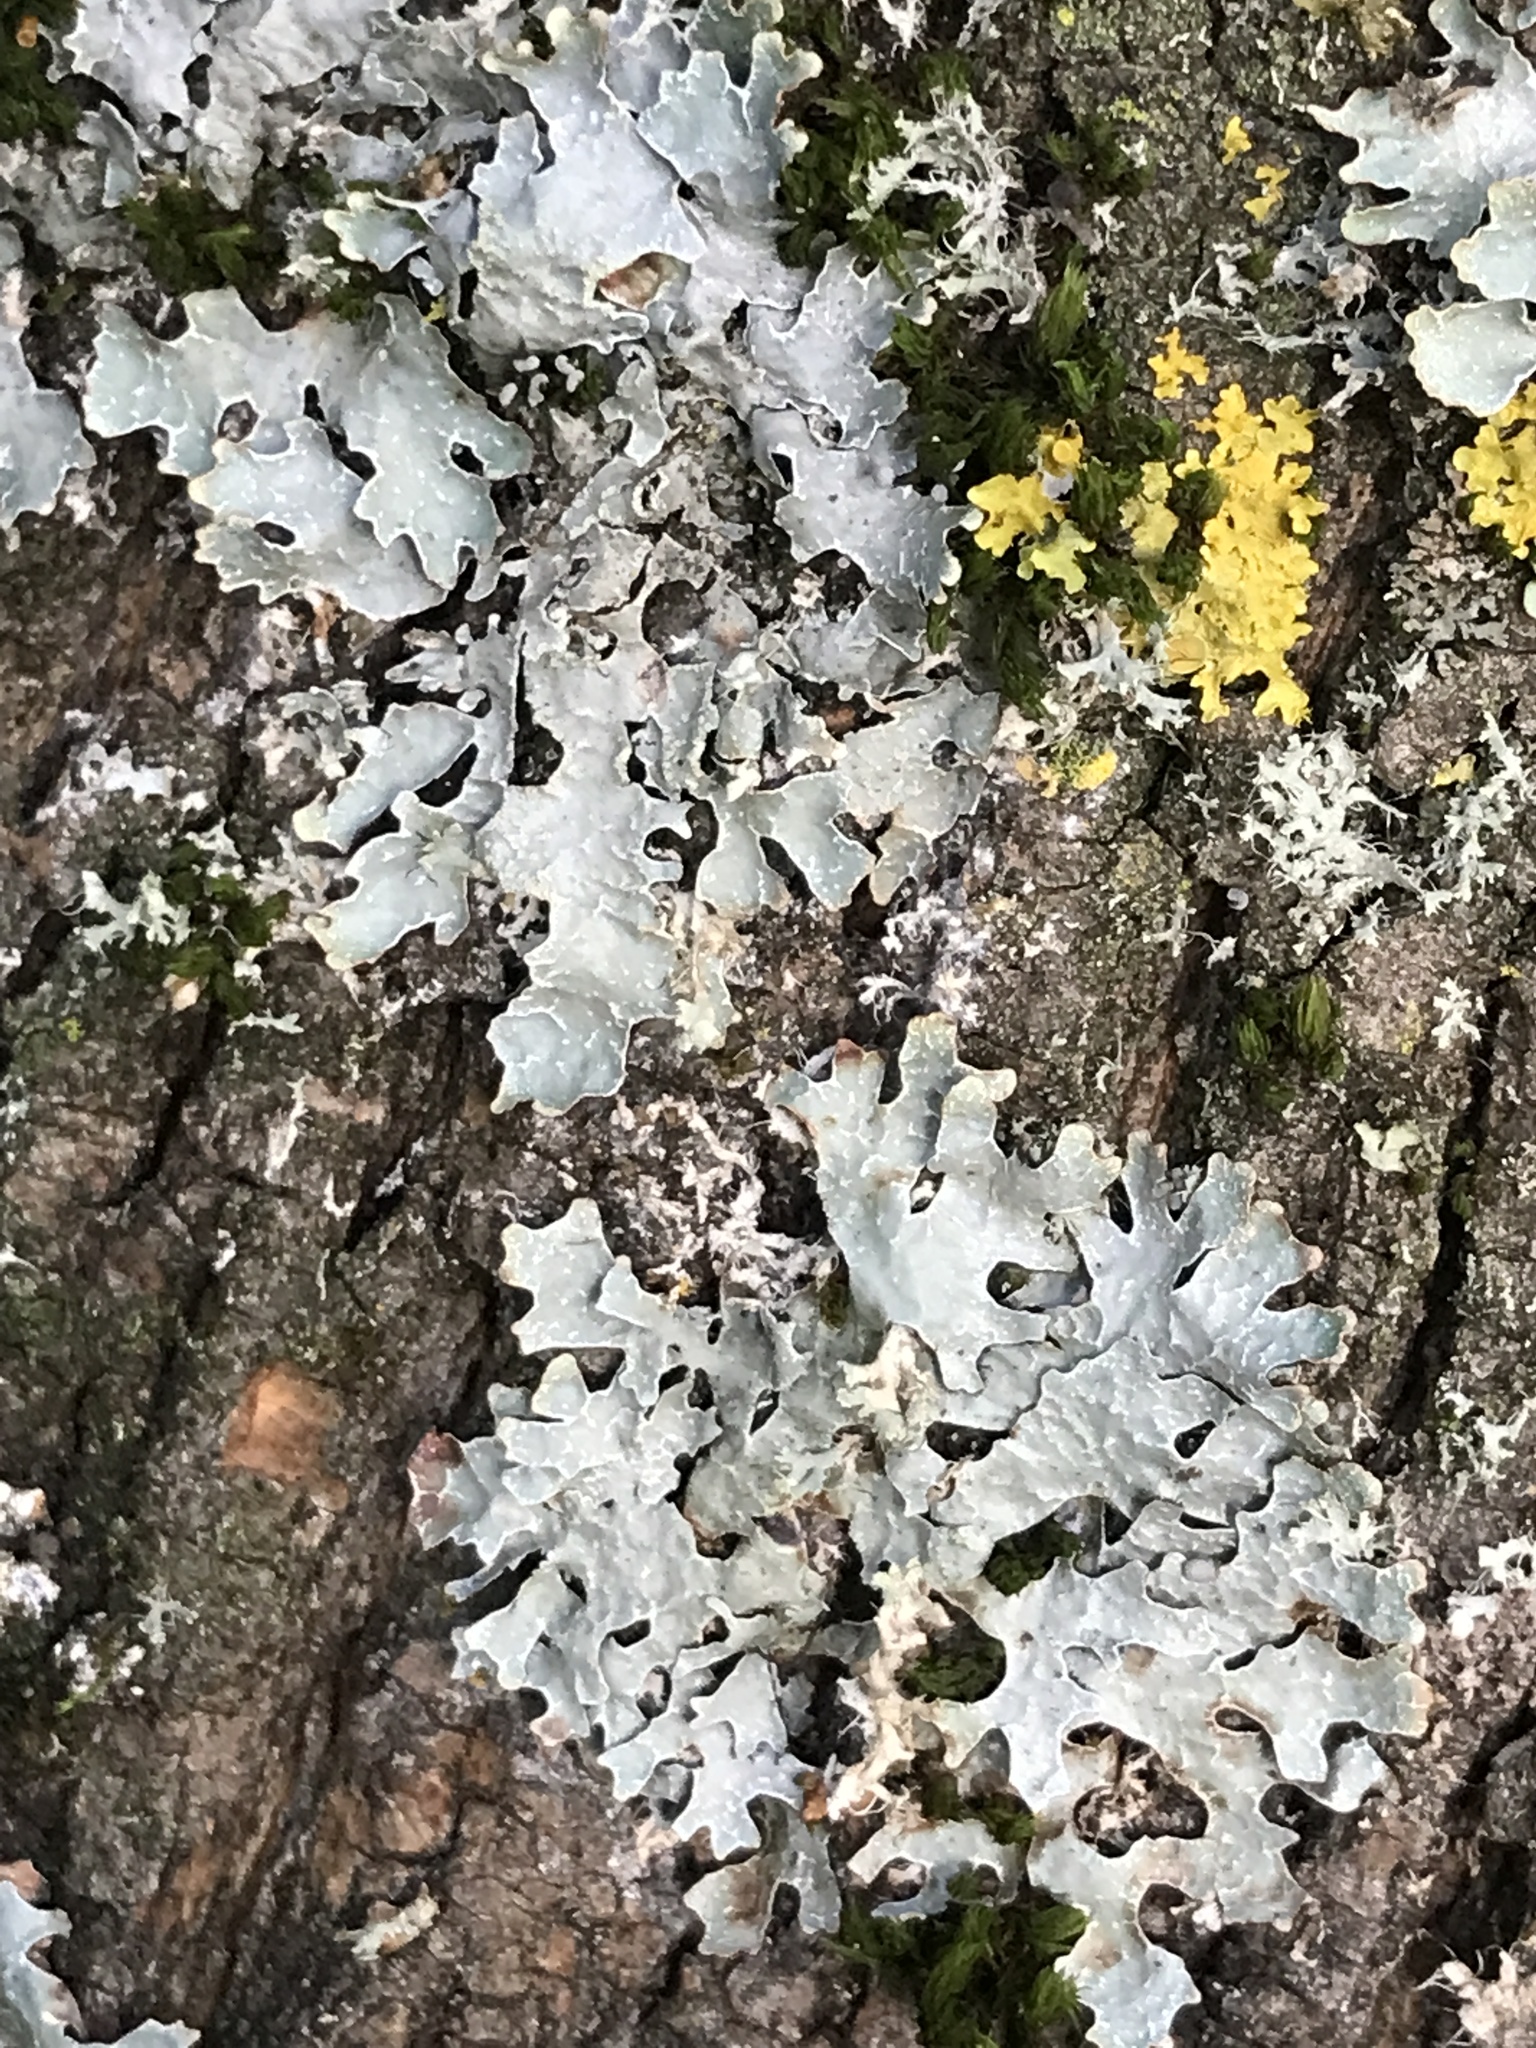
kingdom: Fungi
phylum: Ascomycota
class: Lecanoromycetes
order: Lecanorales
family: Parmeliaceae
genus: Parmelia
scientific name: Parmelia sulcata
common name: Netted shield lichen
